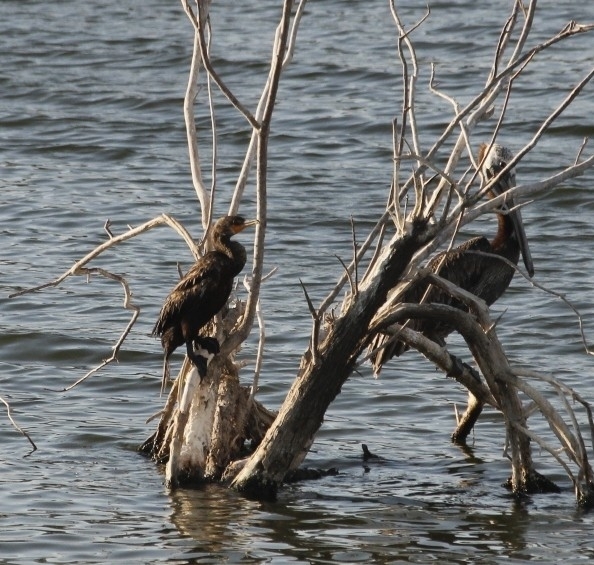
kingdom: Animalia
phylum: Chordata
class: Aves
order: Suliformes
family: Phalacrocoracidae
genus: Phalacrocorax
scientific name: Phalacrocorax auritus
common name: Double-crested cormorant
